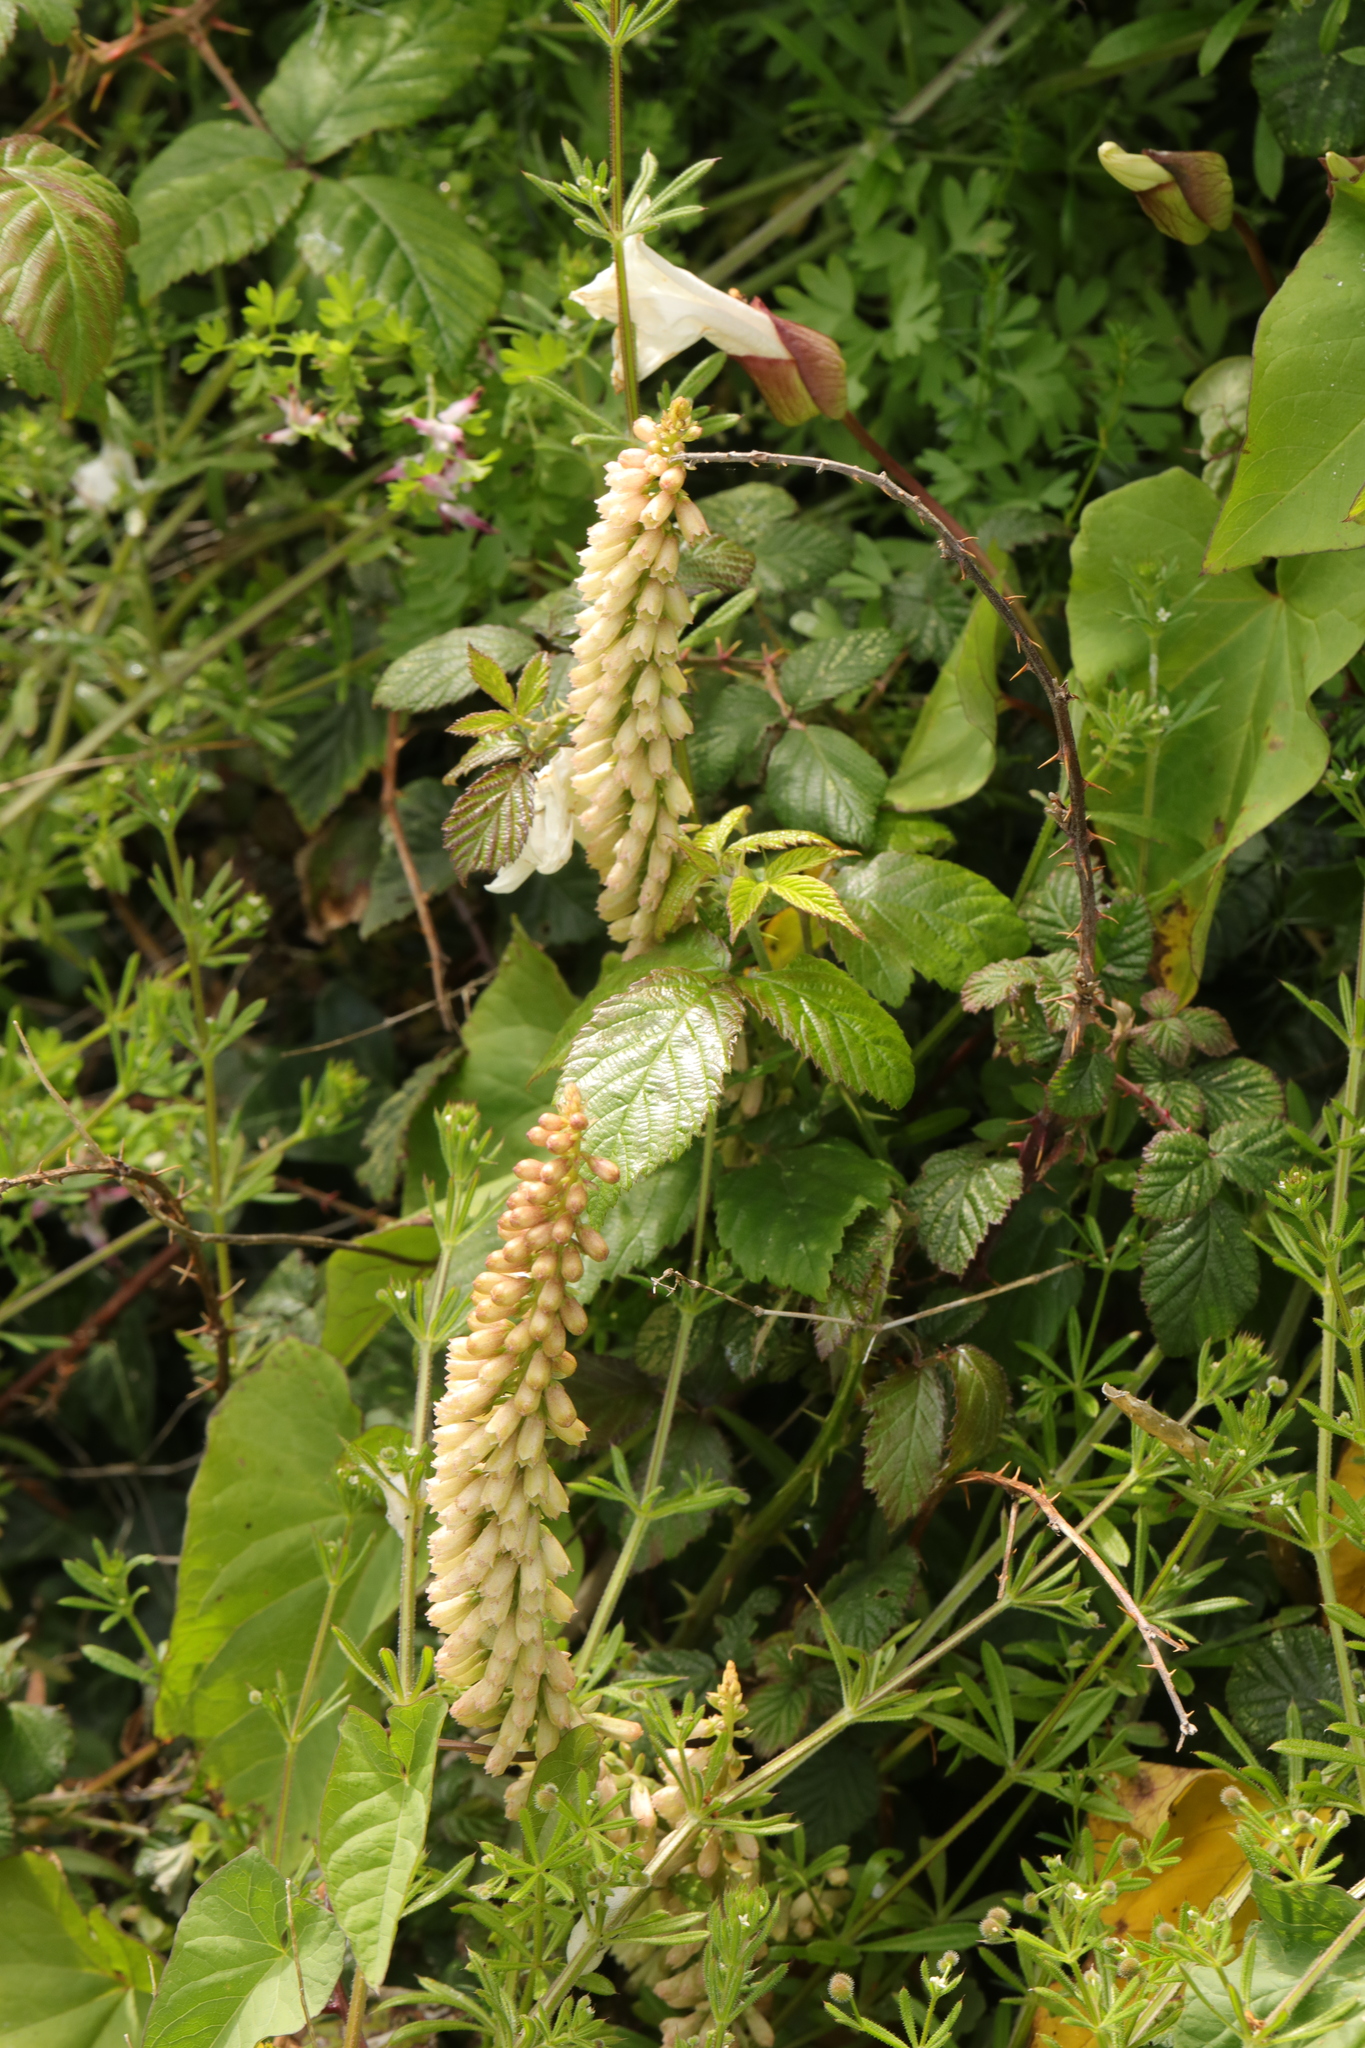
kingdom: Plantae
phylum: Tracheophyta
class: Magnoliopsida
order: Saxifragales
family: Crassulaceae
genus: Umbilicus
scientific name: Umbilicus rupestris
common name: Navelwort
